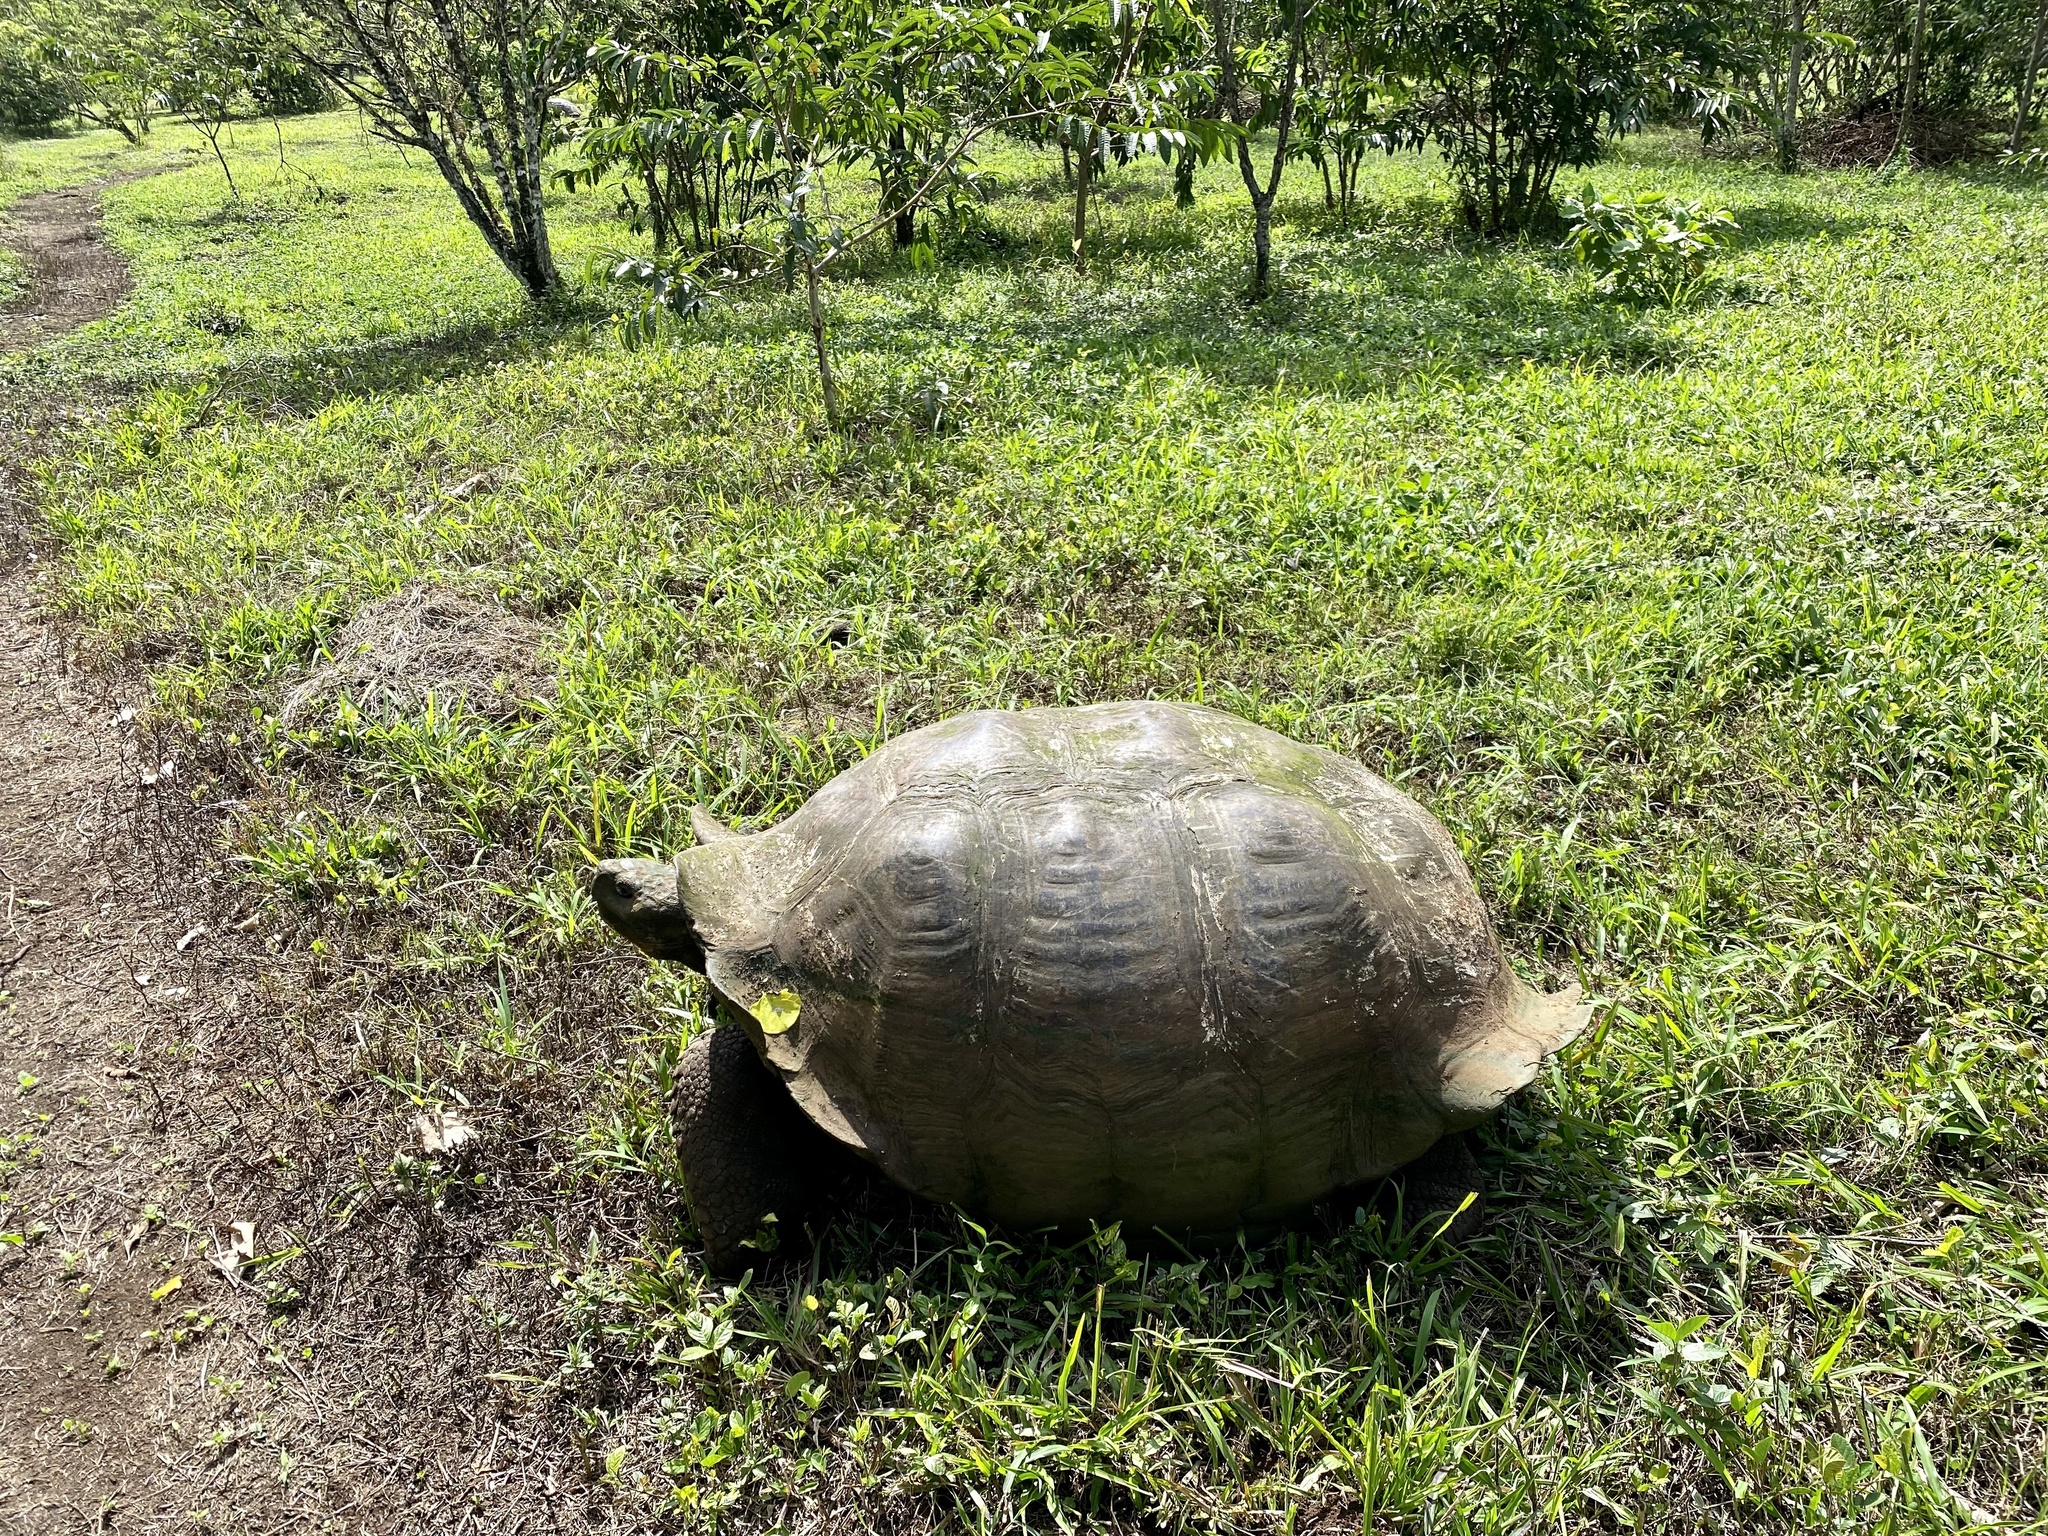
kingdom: Animalia
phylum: Chordata
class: Testudines
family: Testudinidae
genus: Chelonoidis
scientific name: Chelonoidis porteri
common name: Indefatigable island giant tortoise
